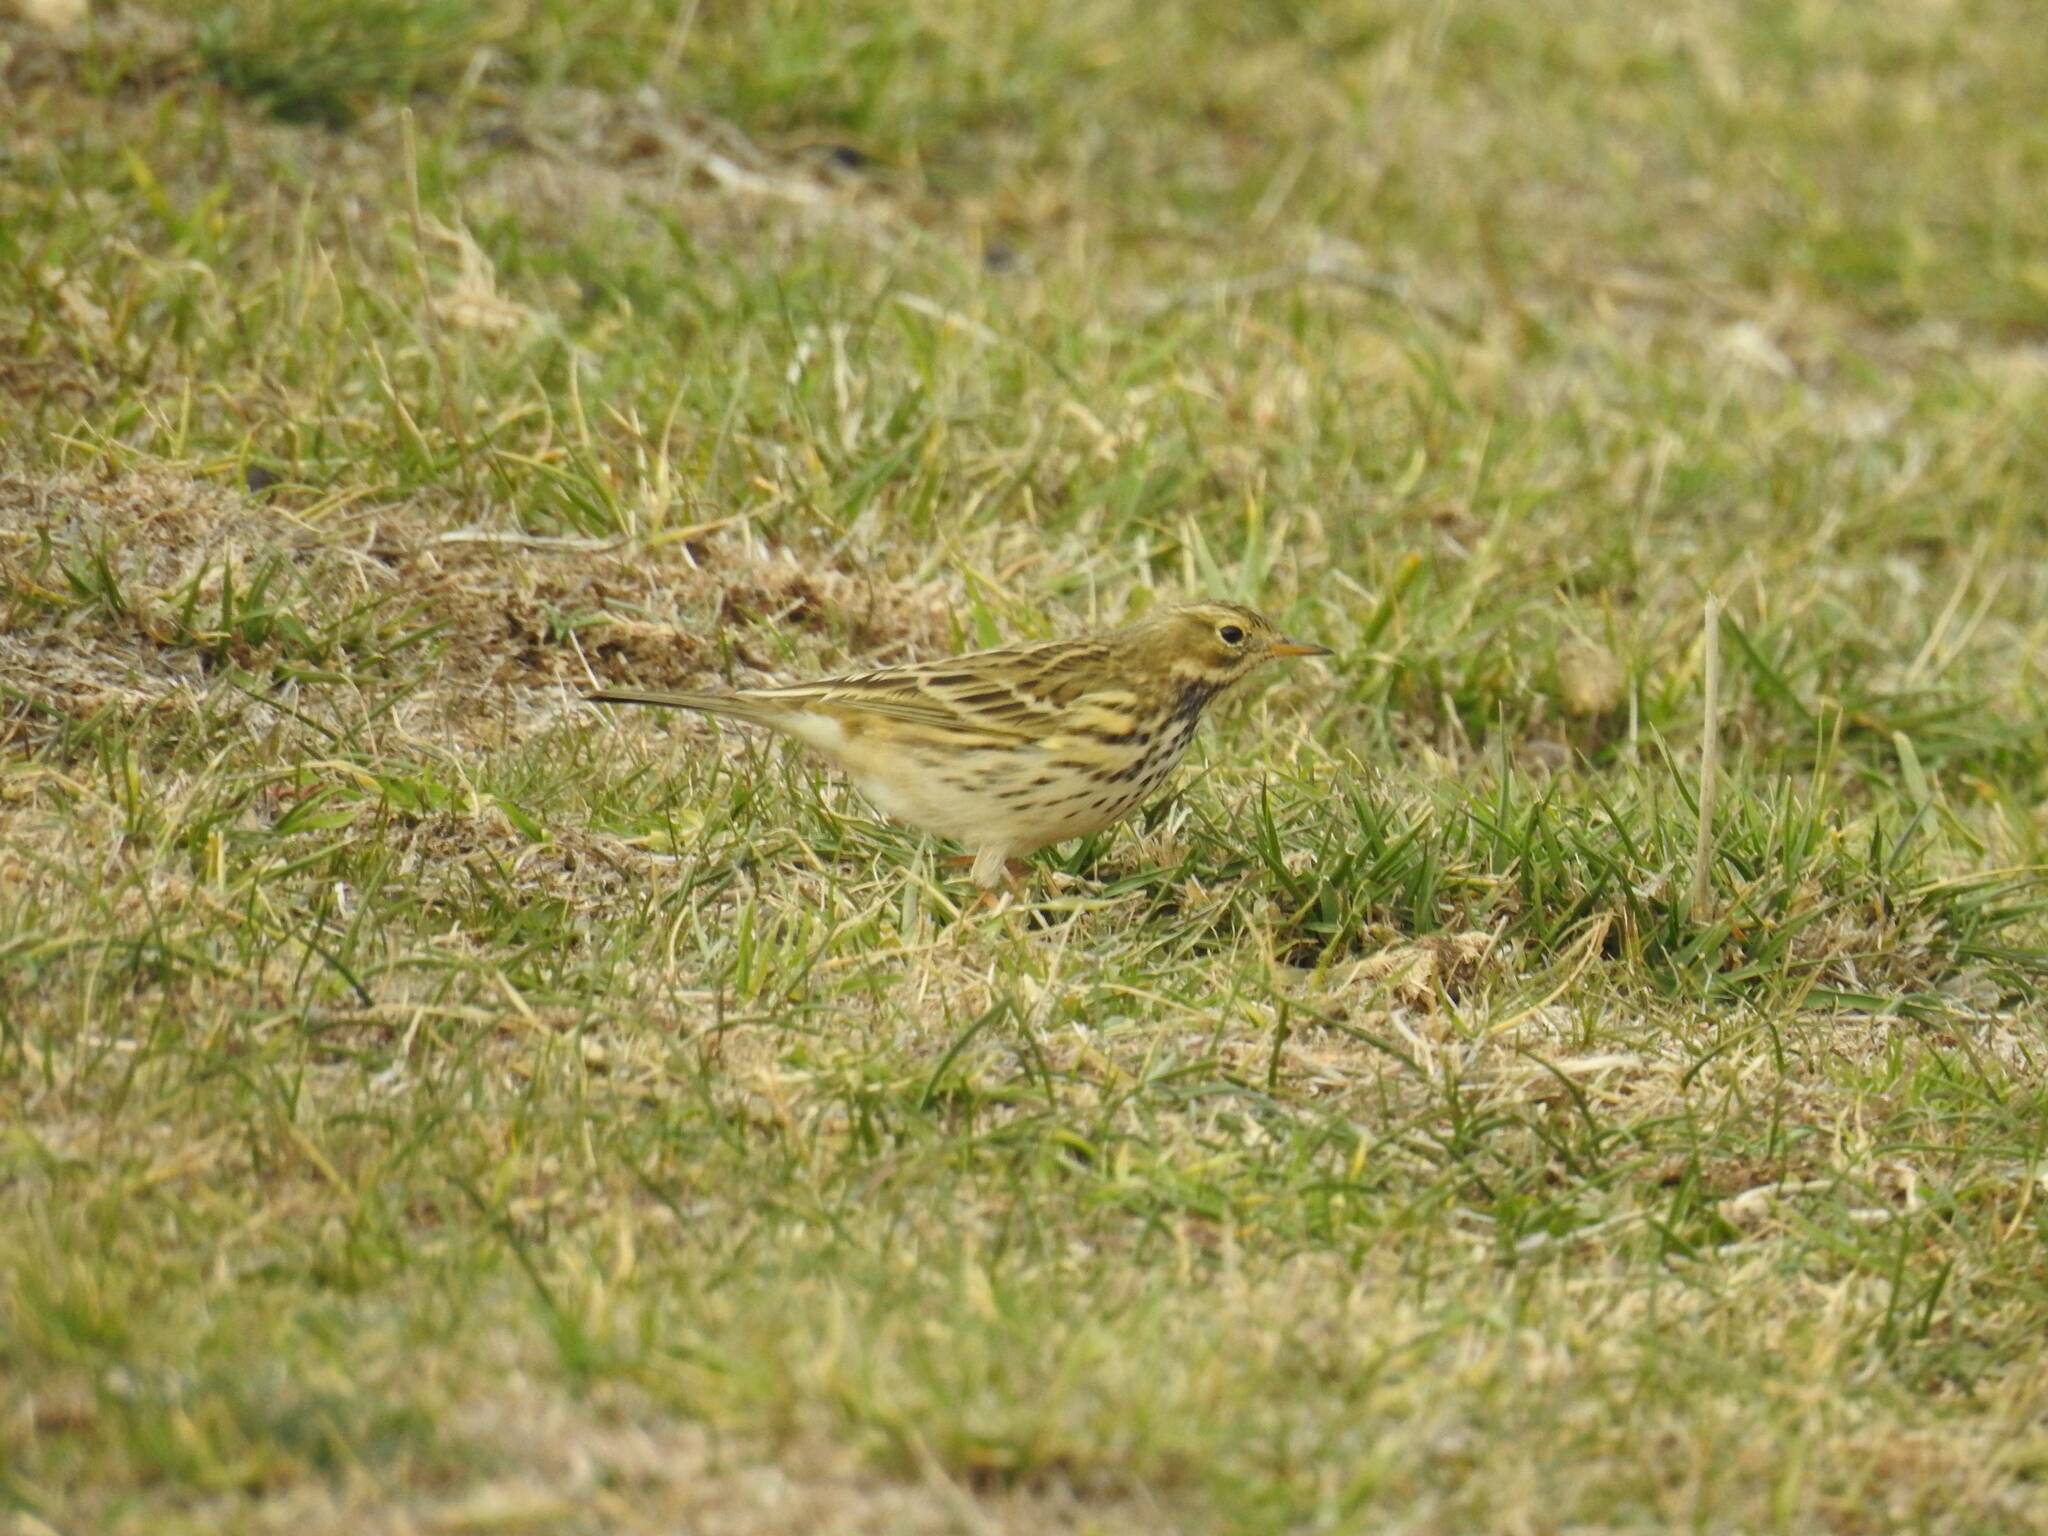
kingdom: Animalia
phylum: Chordata
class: Aves
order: Passeriformes
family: Motacillidae
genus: Anthus
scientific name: Anthus pratensis
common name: Meadow pipit
